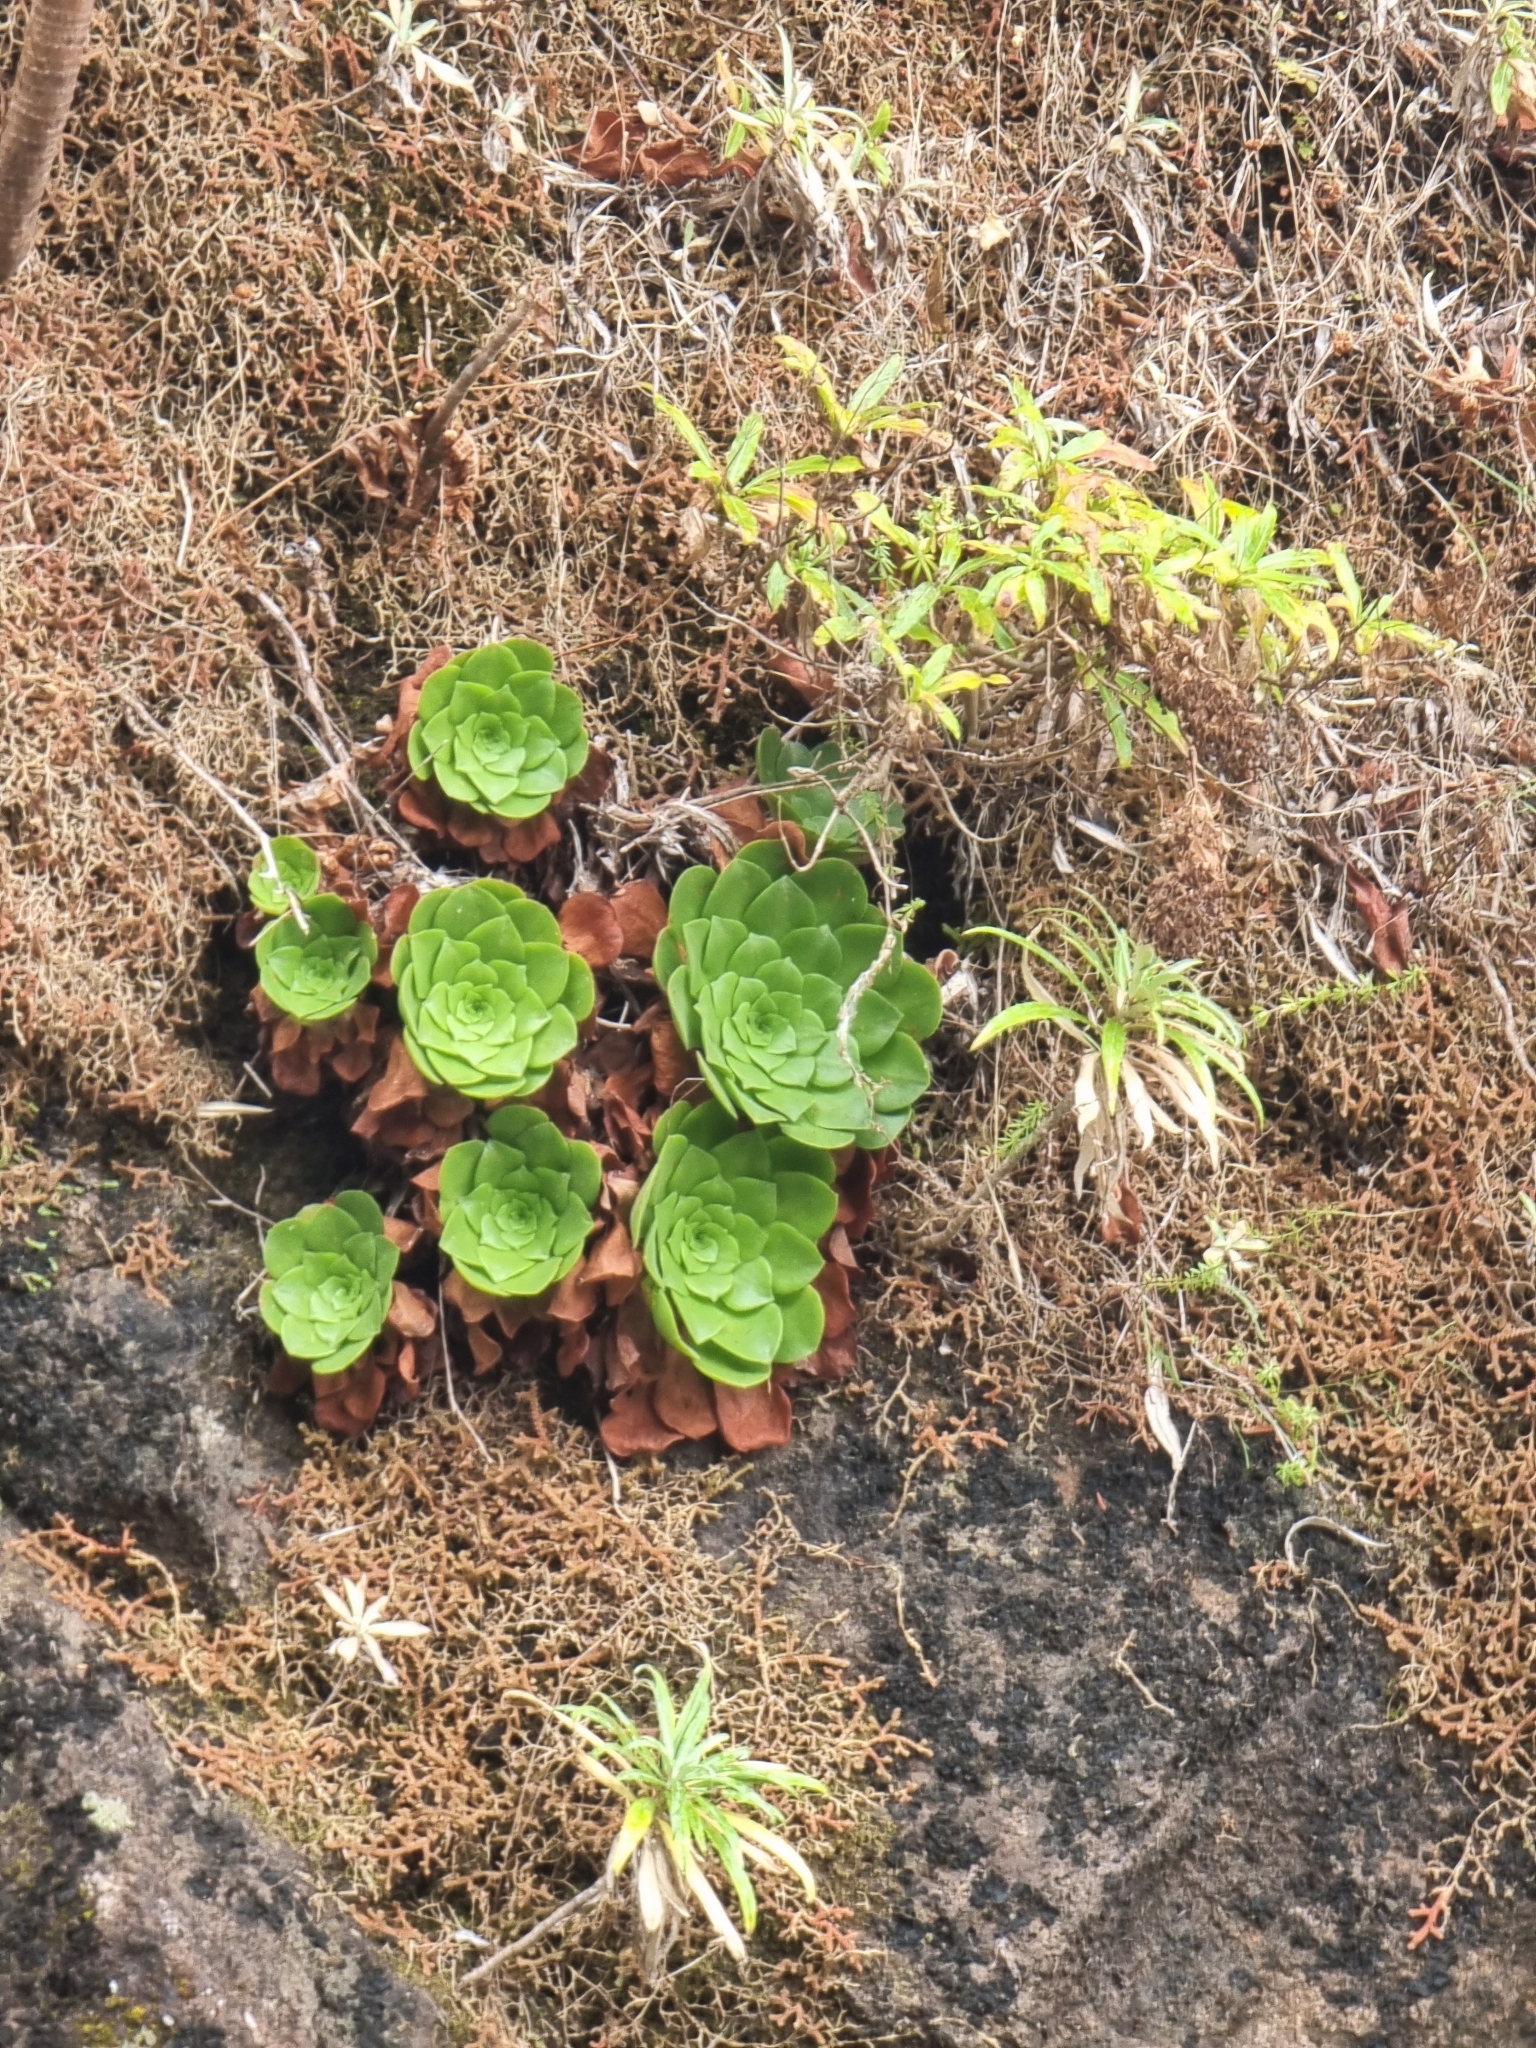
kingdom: Plantae
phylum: Tracheophyta
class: Magnoliopsida
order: Saxifragales
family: Crassulaceae
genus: Aeonium
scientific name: Aeonium glandulosum
